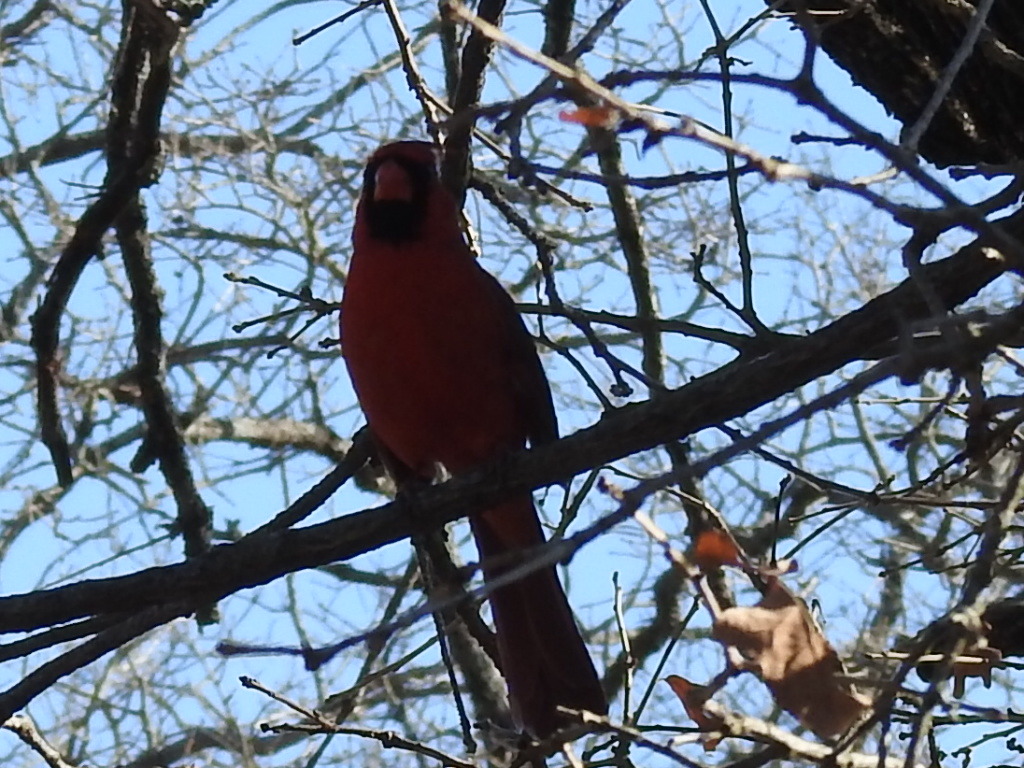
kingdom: Animalia
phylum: Chordata
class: Aves
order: Passeriformes
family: Cardinalidae
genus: Cardinalis
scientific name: Cardinalis cardinalis
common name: Northern cardinal
